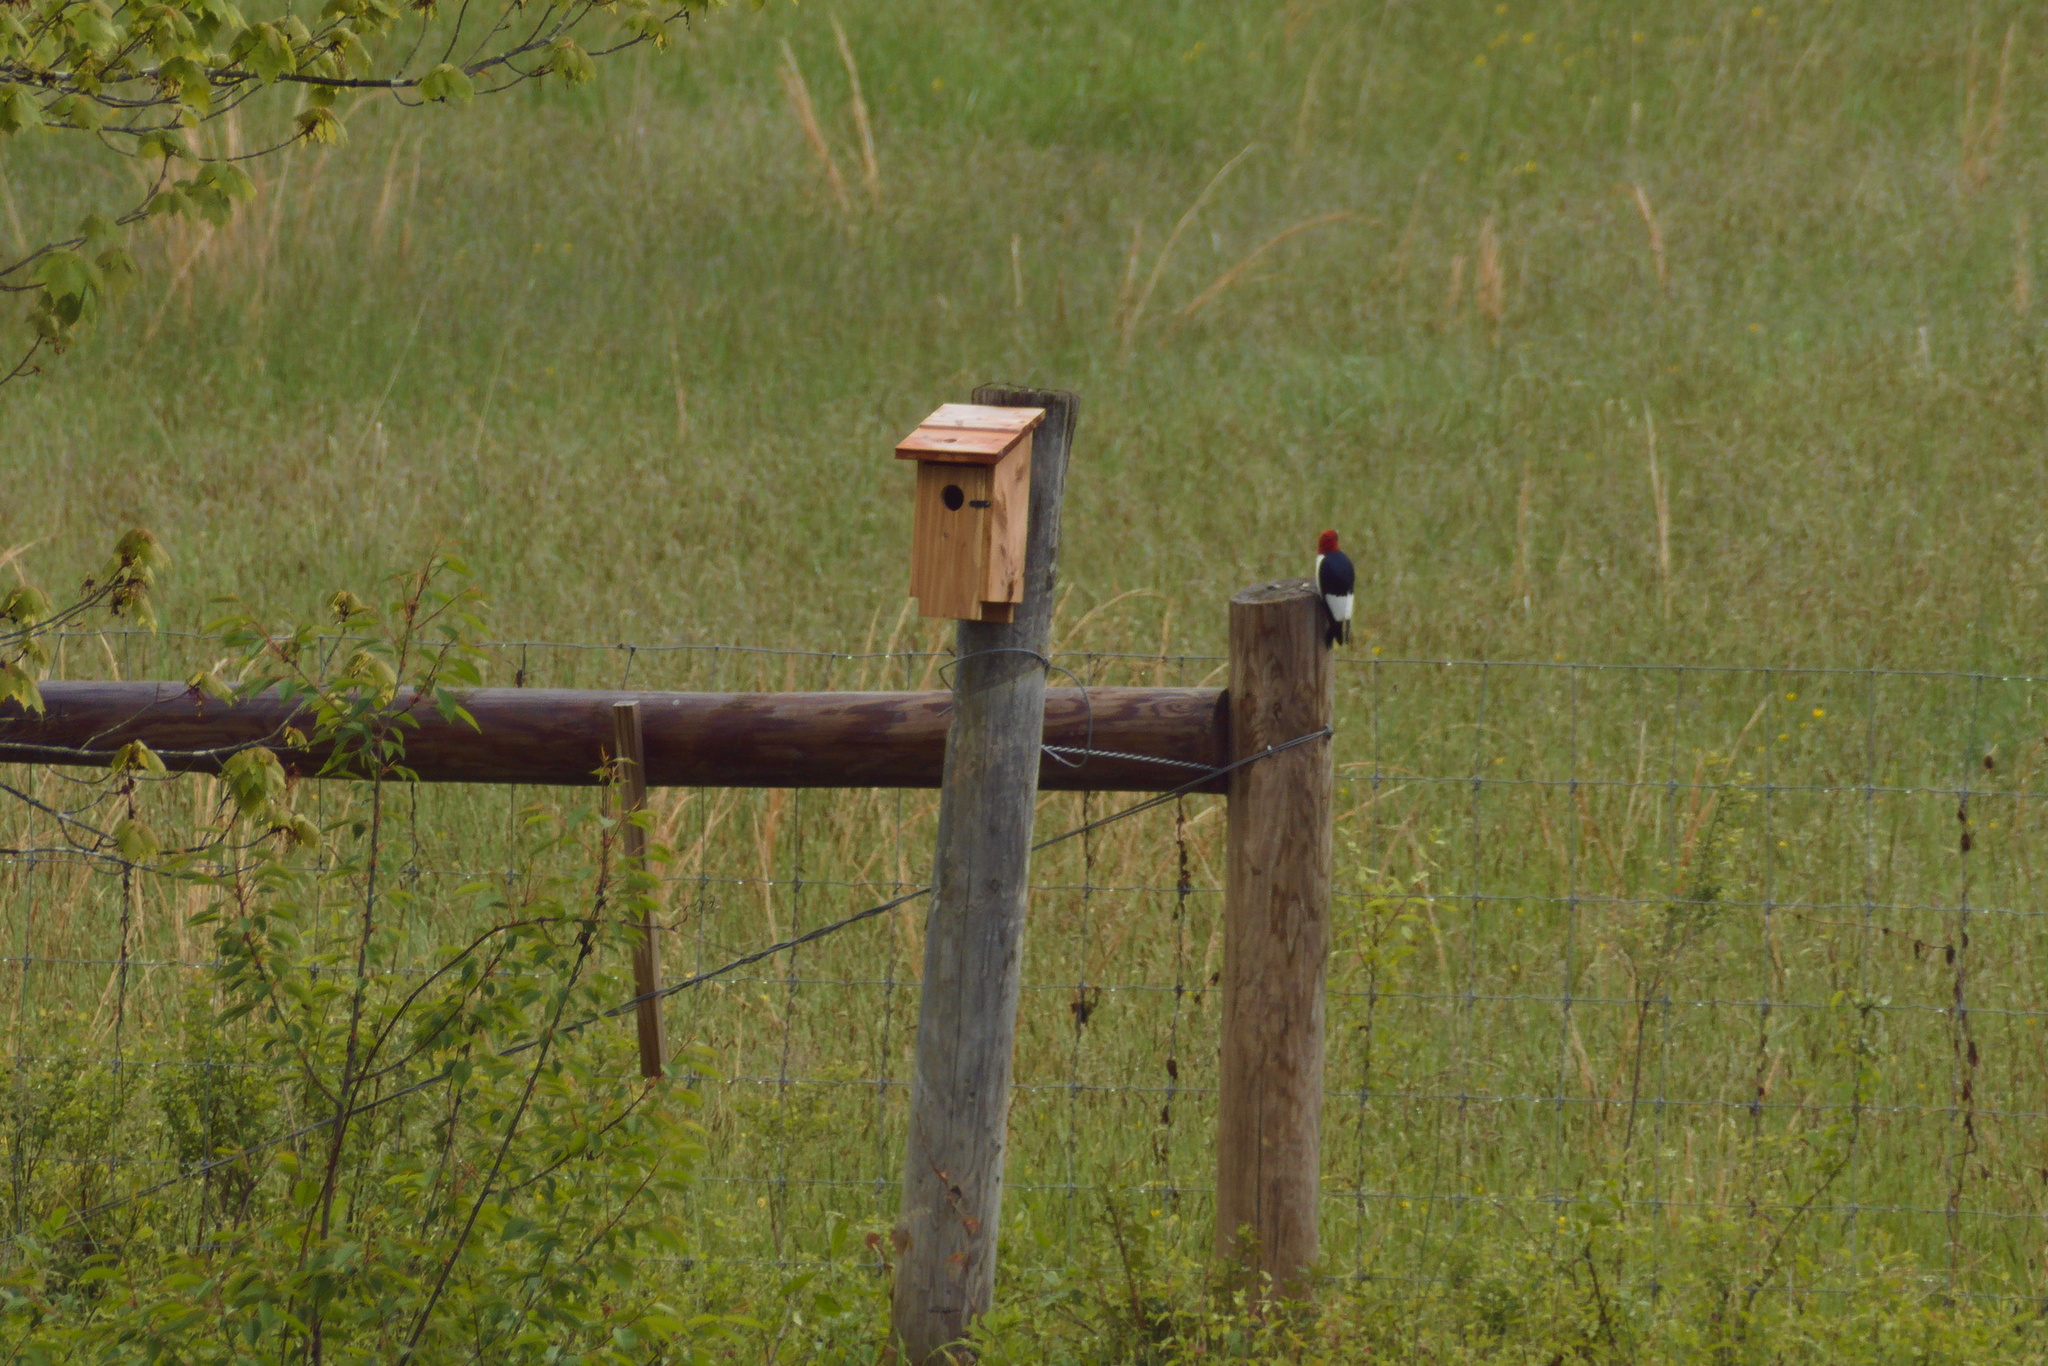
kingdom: Animalia
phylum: Chordata
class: Aves
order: Piciformes
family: Picidae
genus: Melanerpes
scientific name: Melanerpes erythrocephalus
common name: Red-headed woodpecker
